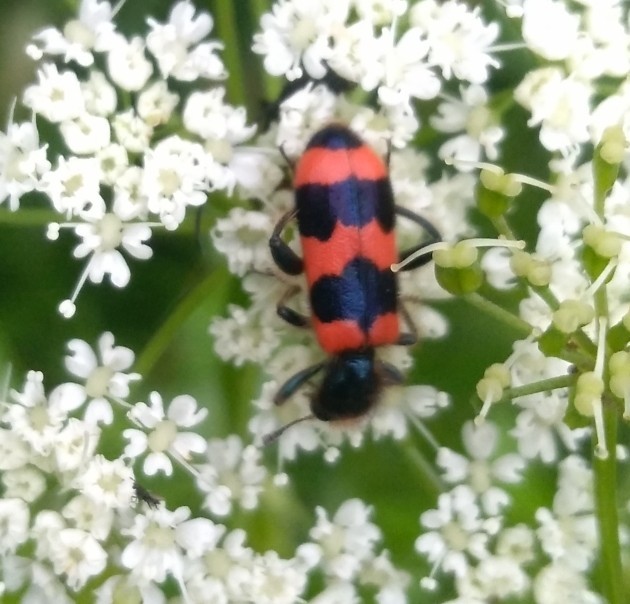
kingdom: Animalia
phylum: Arthropoda
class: Insecta
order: Coleoptera
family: Cleridae
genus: Trichodes
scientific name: Trichodes apiarius
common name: Bee-eating beetle
